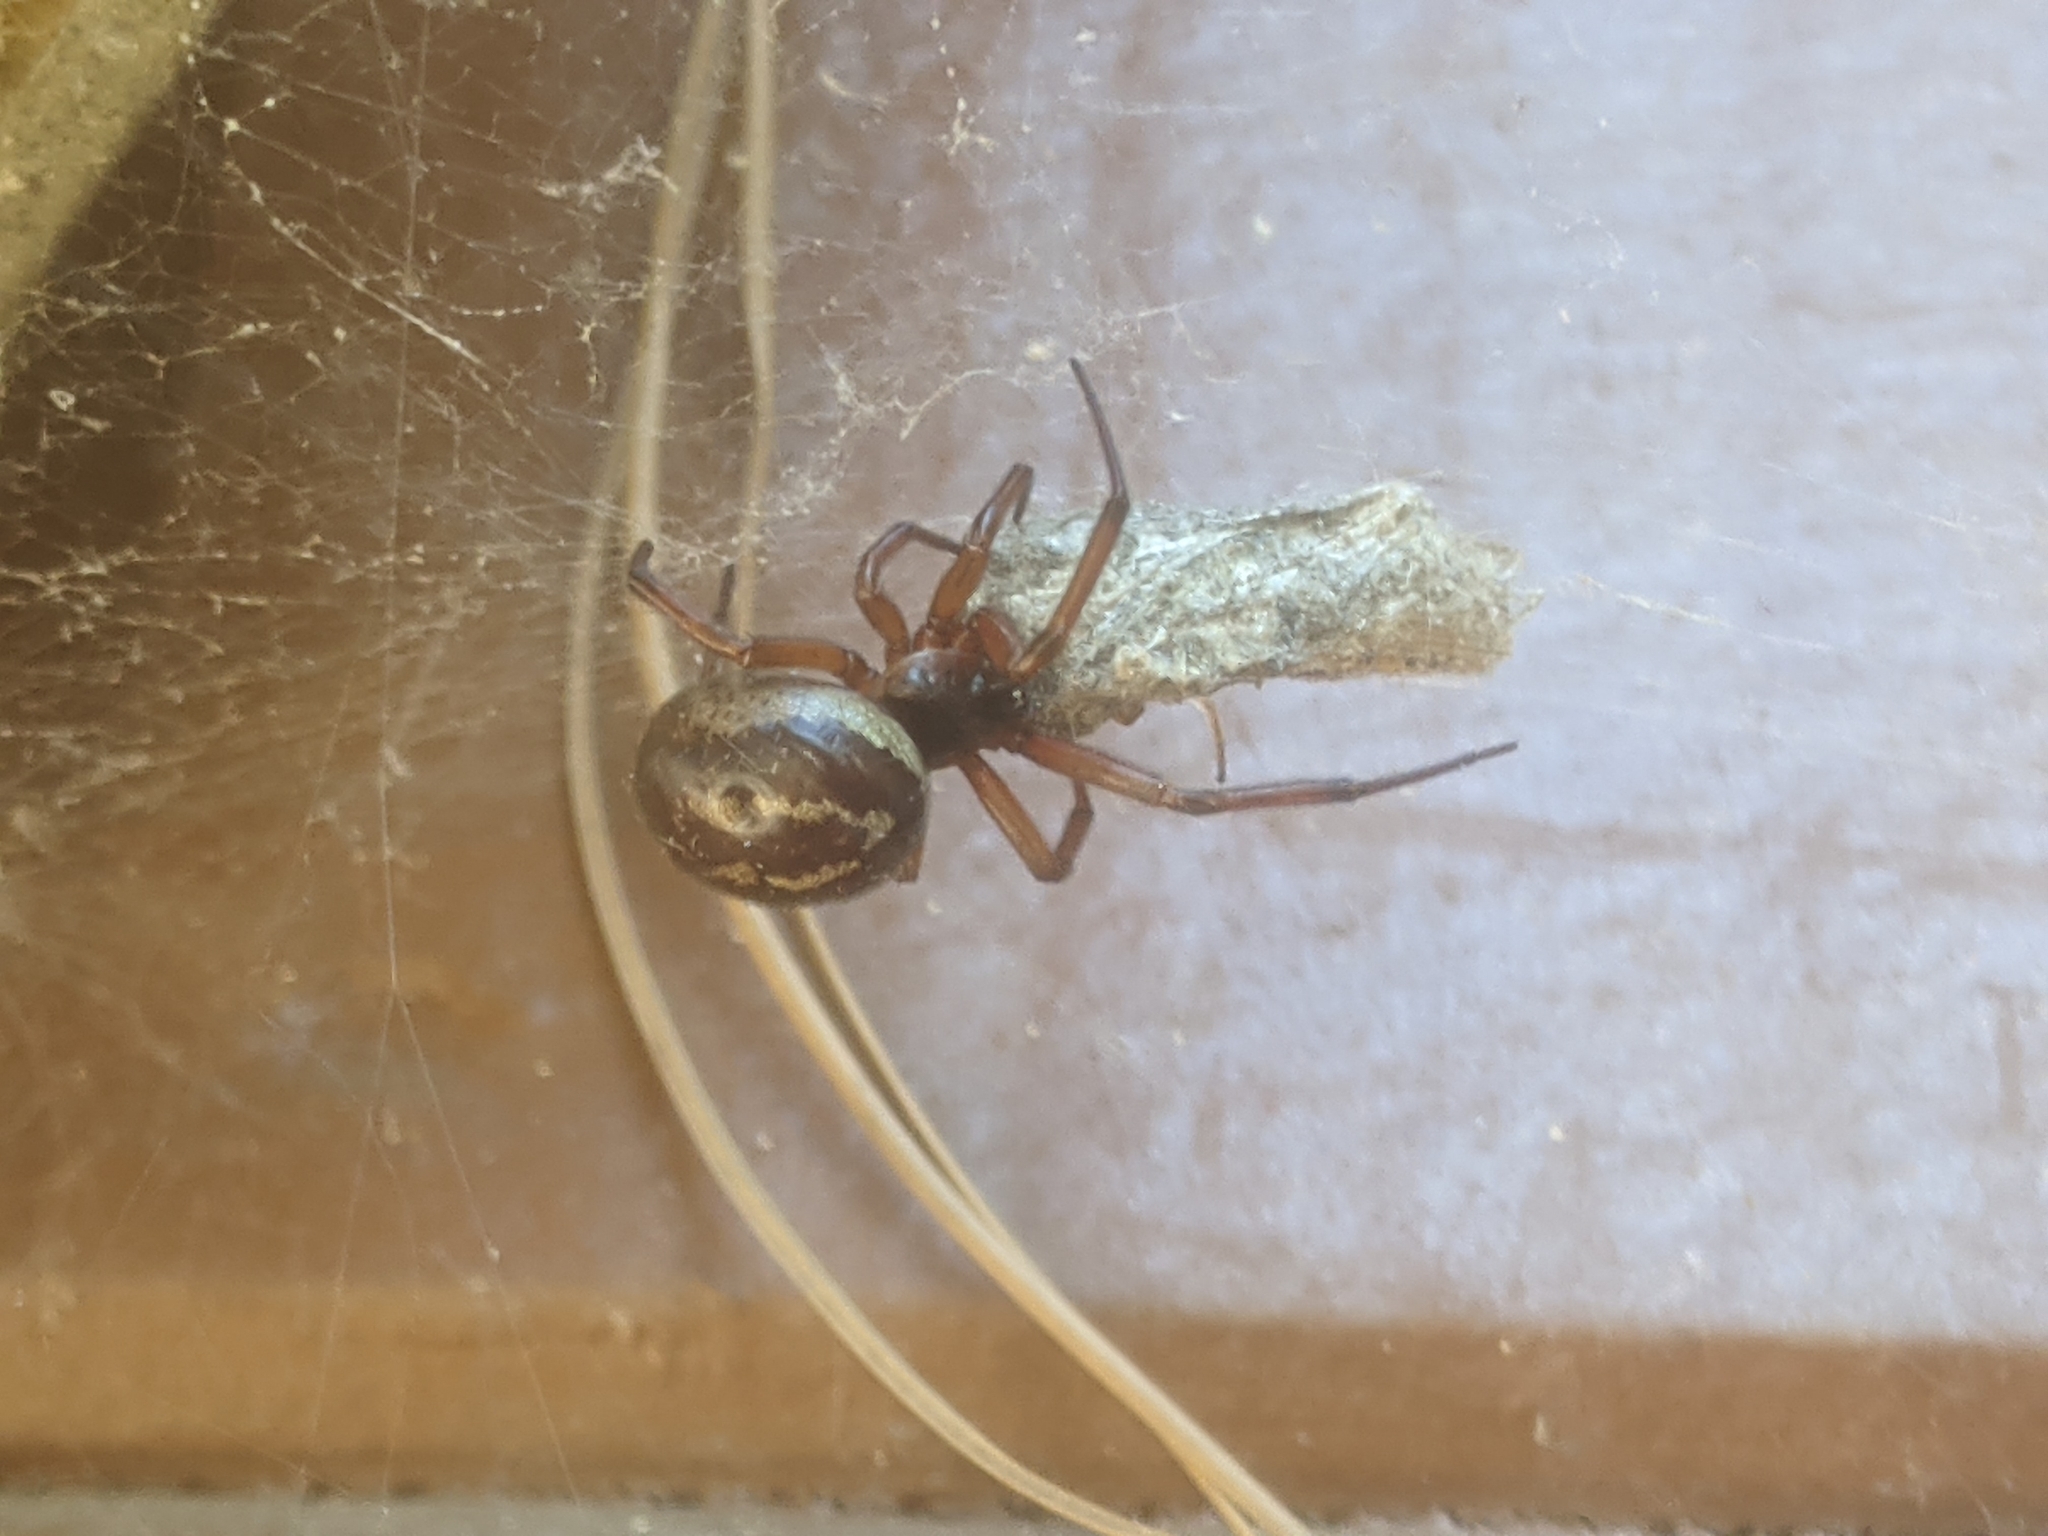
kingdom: Animalia
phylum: Arthropoda
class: Arachnida
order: Araneae
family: Theridiidae
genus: Steatoda
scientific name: Steatoda nobilis
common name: Cobweb weaver
